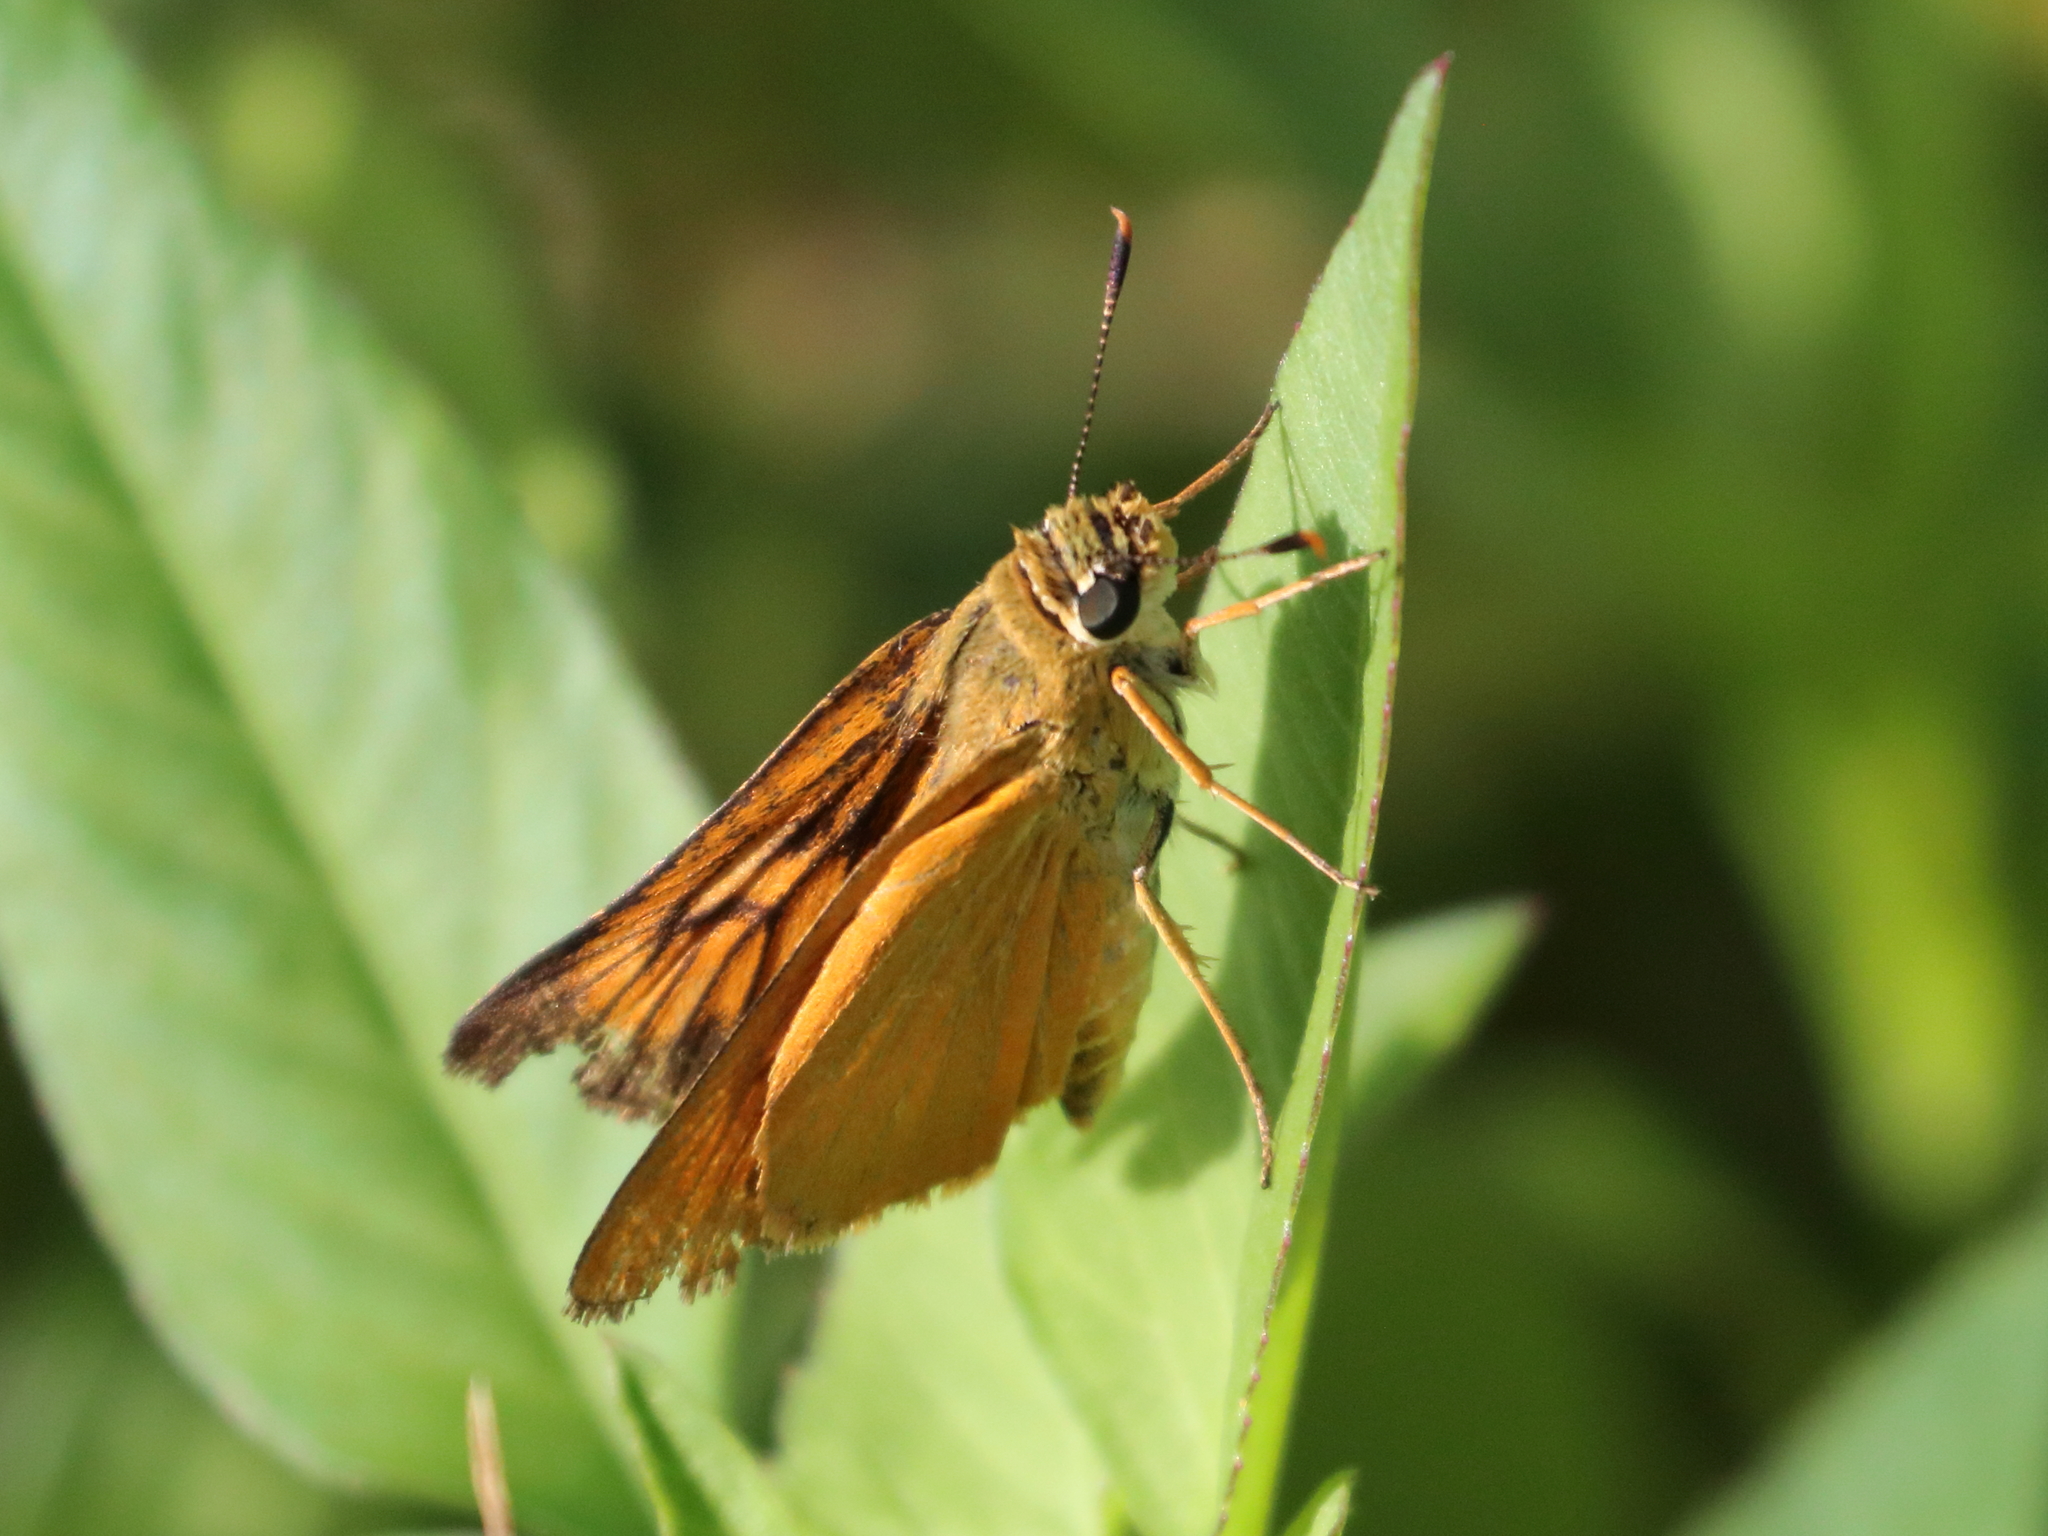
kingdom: Animalia
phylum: Arthropoda
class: Insecta
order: Lepidoptera
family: Hesperiidae
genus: Atrytone
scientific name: Atrytone delaware
